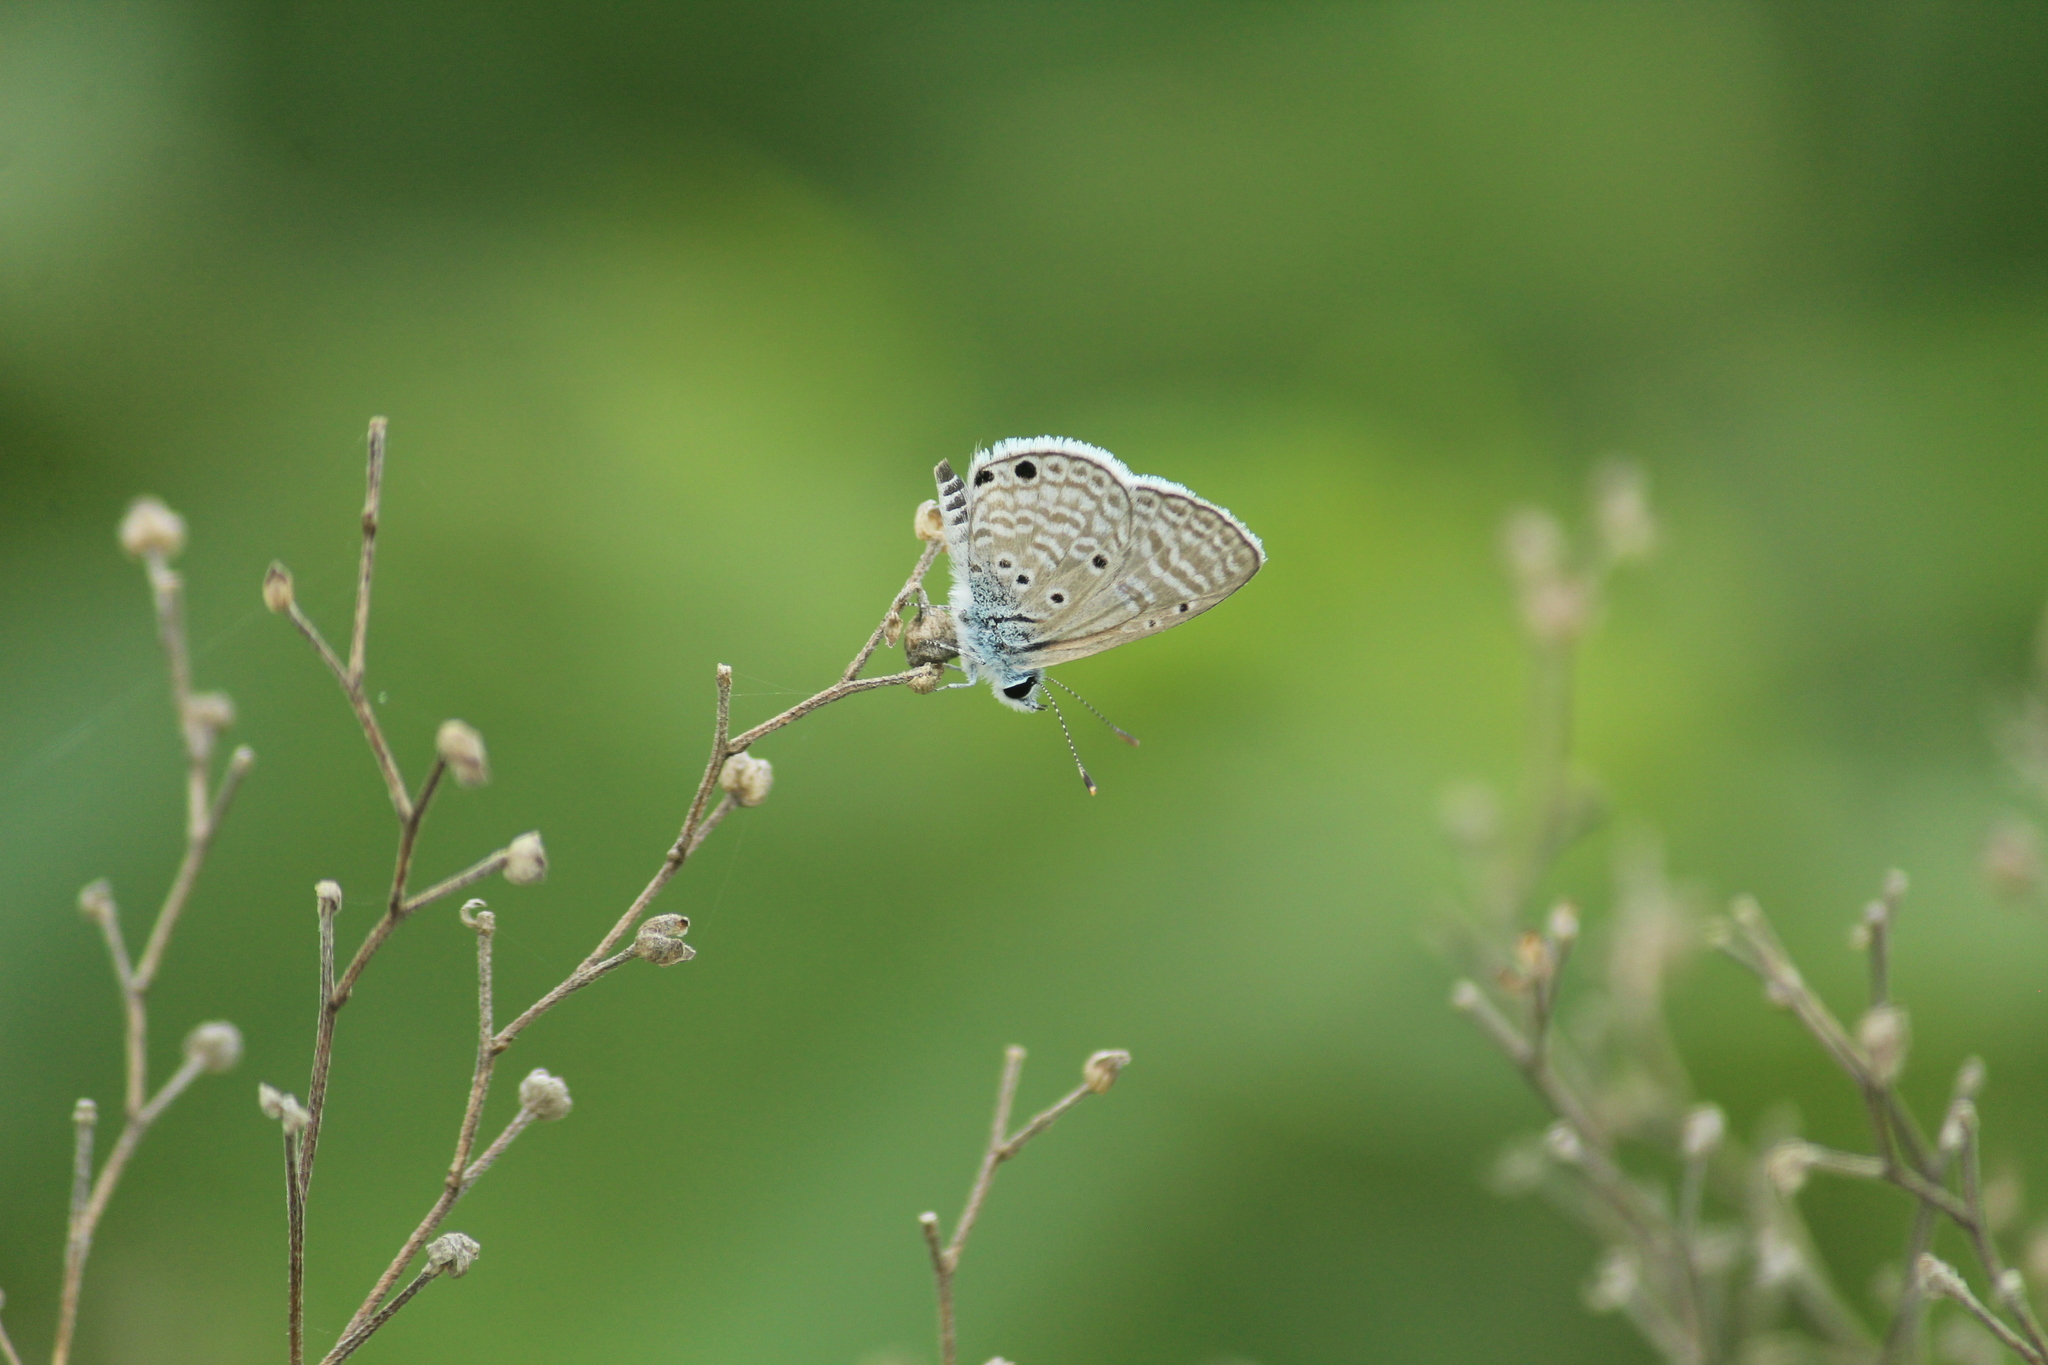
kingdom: Animalia
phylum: Arthropoda
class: Insecta
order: Lepidoptera
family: Lycaenidae
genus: Azanus
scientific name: Azanus ubaldus
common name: Desert babul blue
